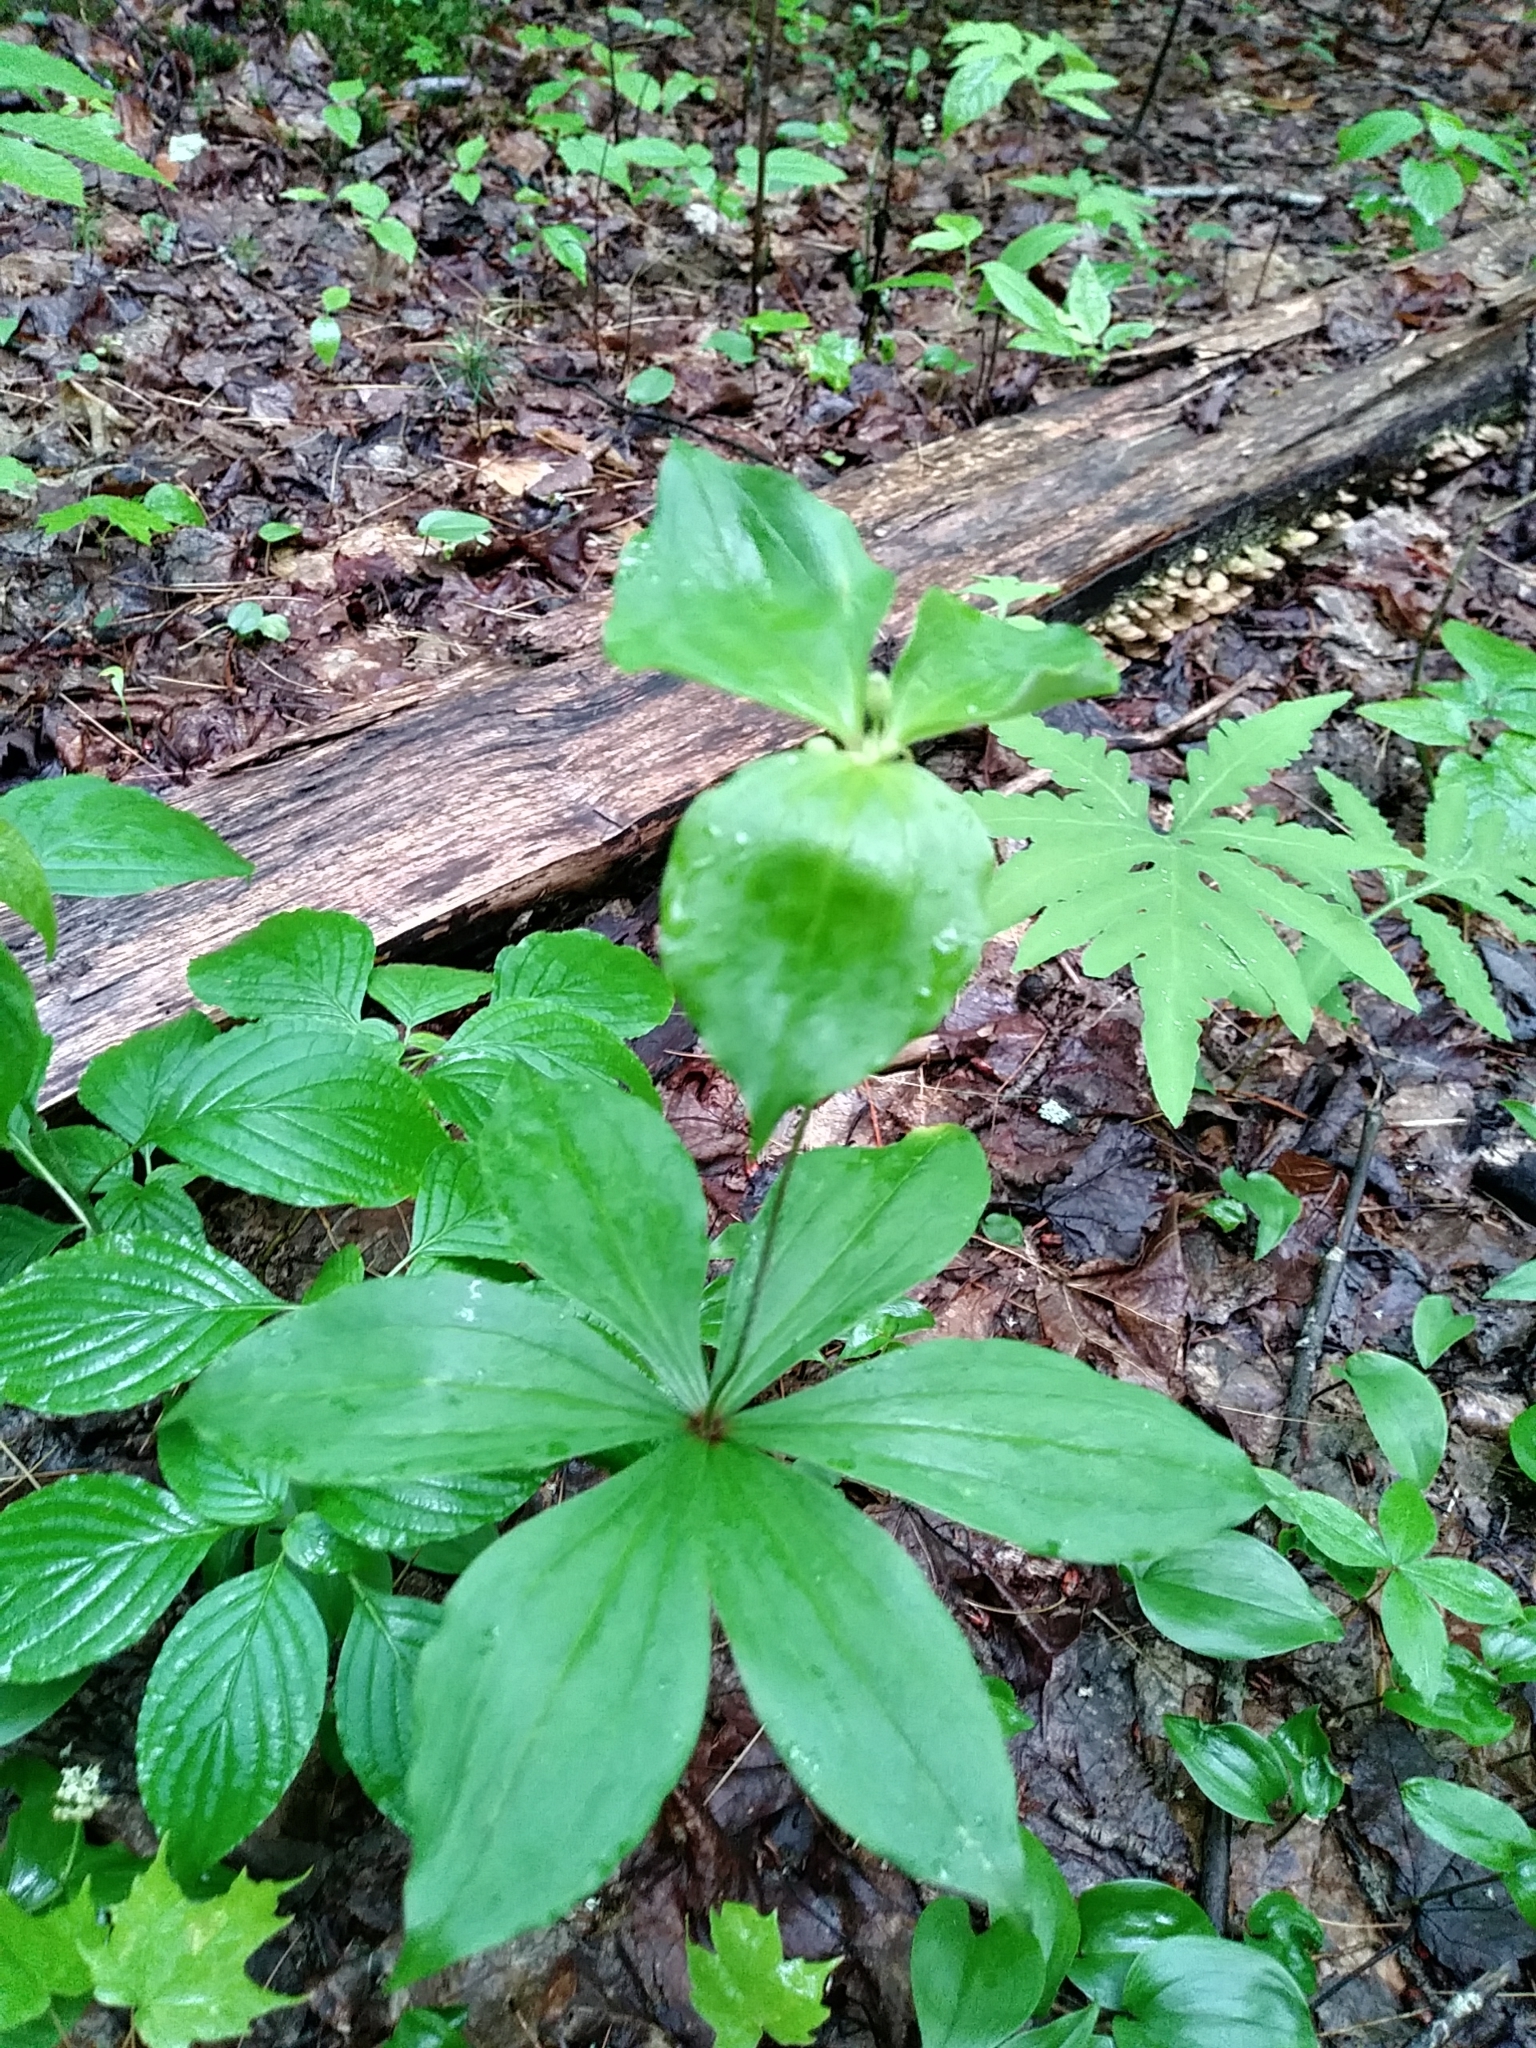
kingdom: Plantae
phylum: Tracheophyta
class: Liliopsida
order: Liliales
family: Liliaceae
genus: Medeola
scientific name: Medeola virginiana
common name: Indian cucumber-root
